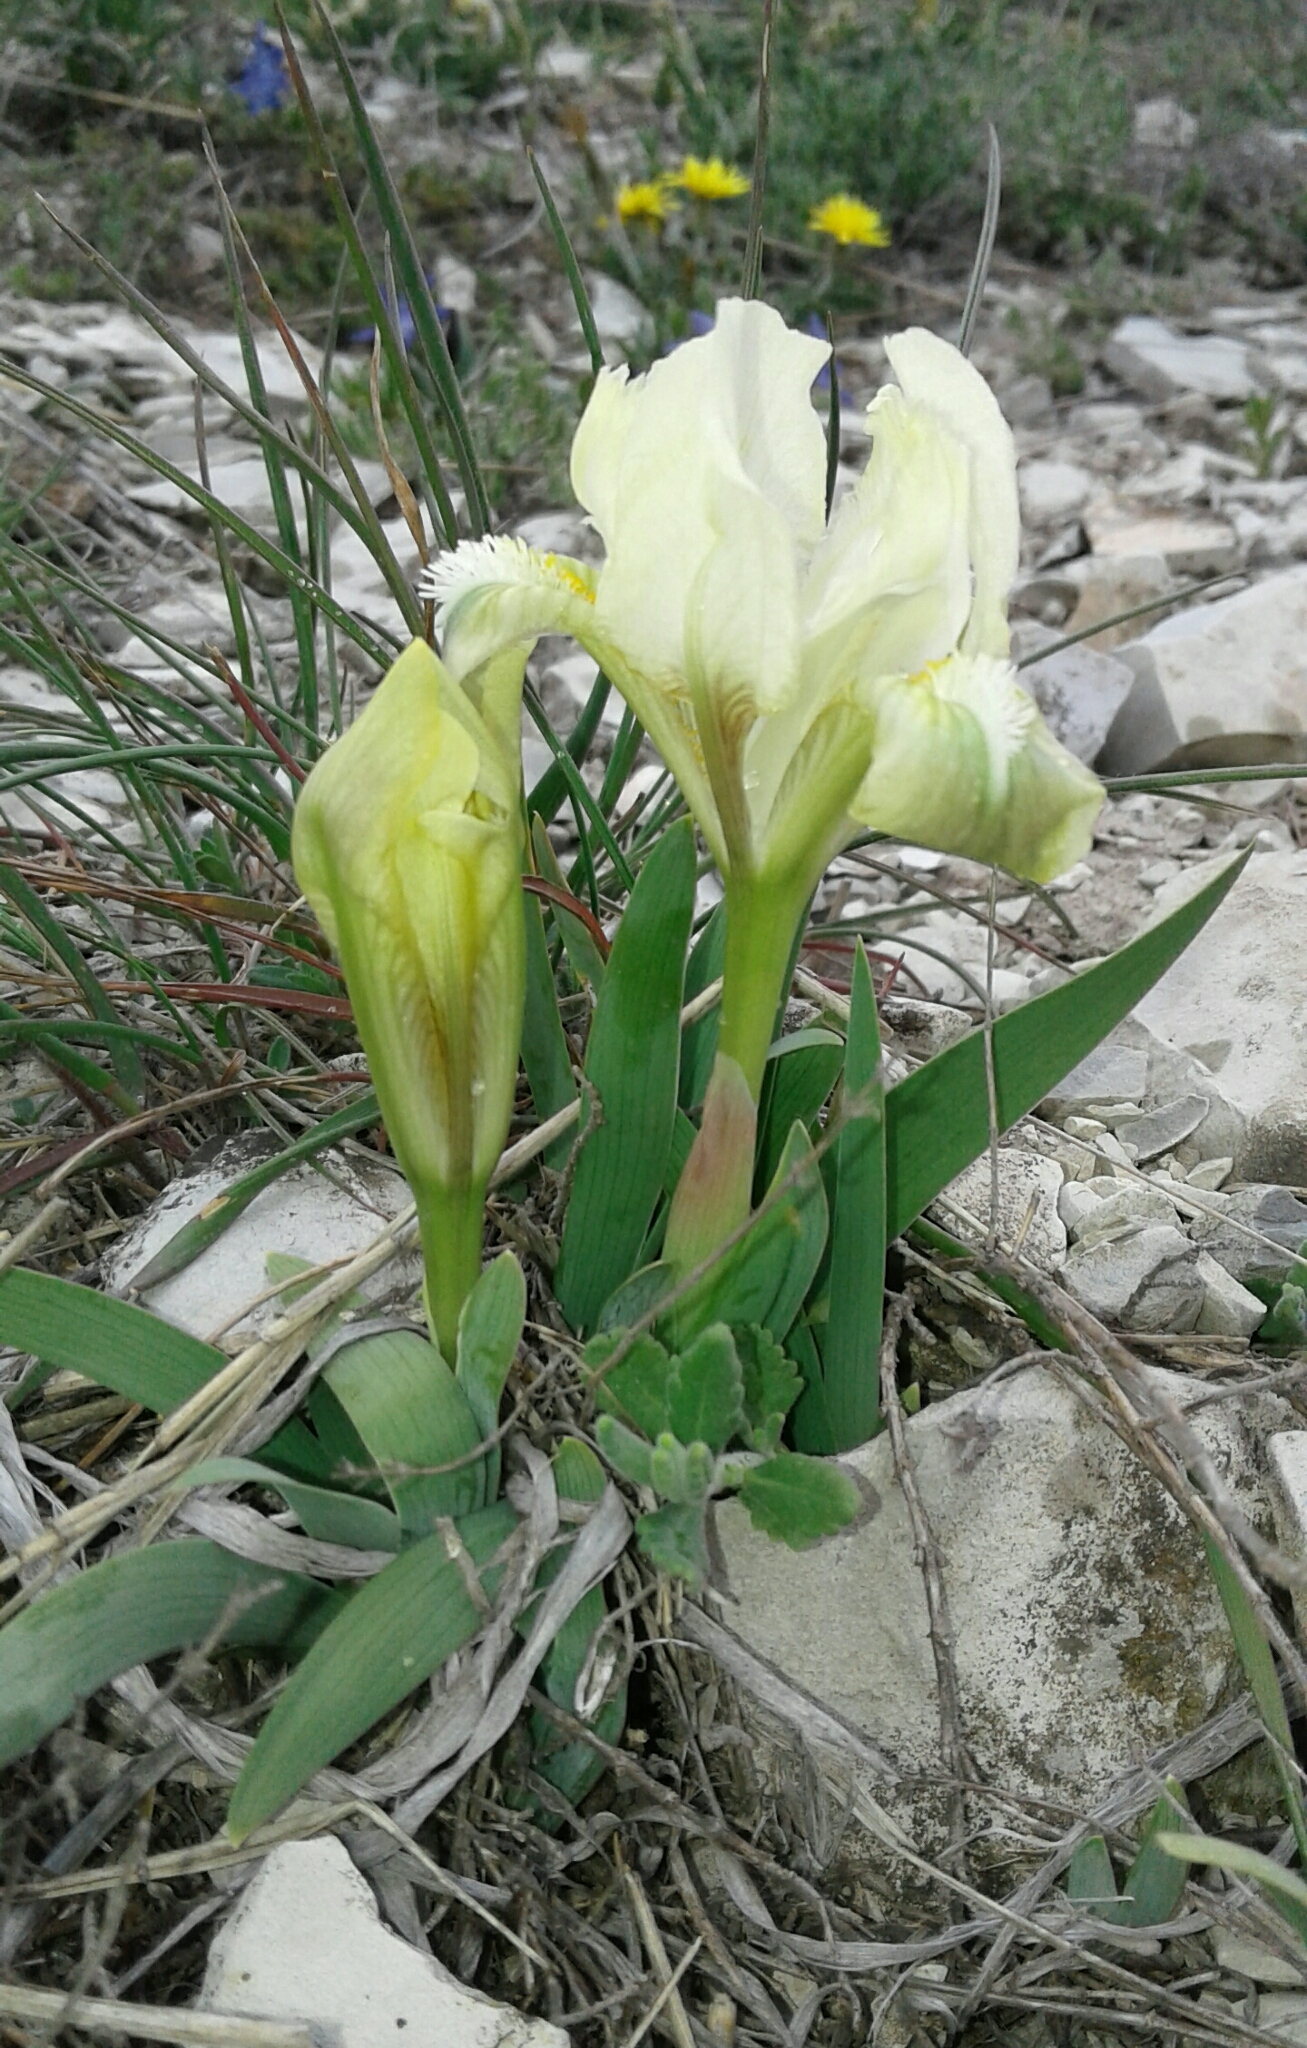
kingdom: Plantae
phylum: Tracheophyta
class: Liliopsida
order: Asparagales
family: Iridaceae
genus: Iris
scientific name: Iris pumila
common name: Dwarf iris
